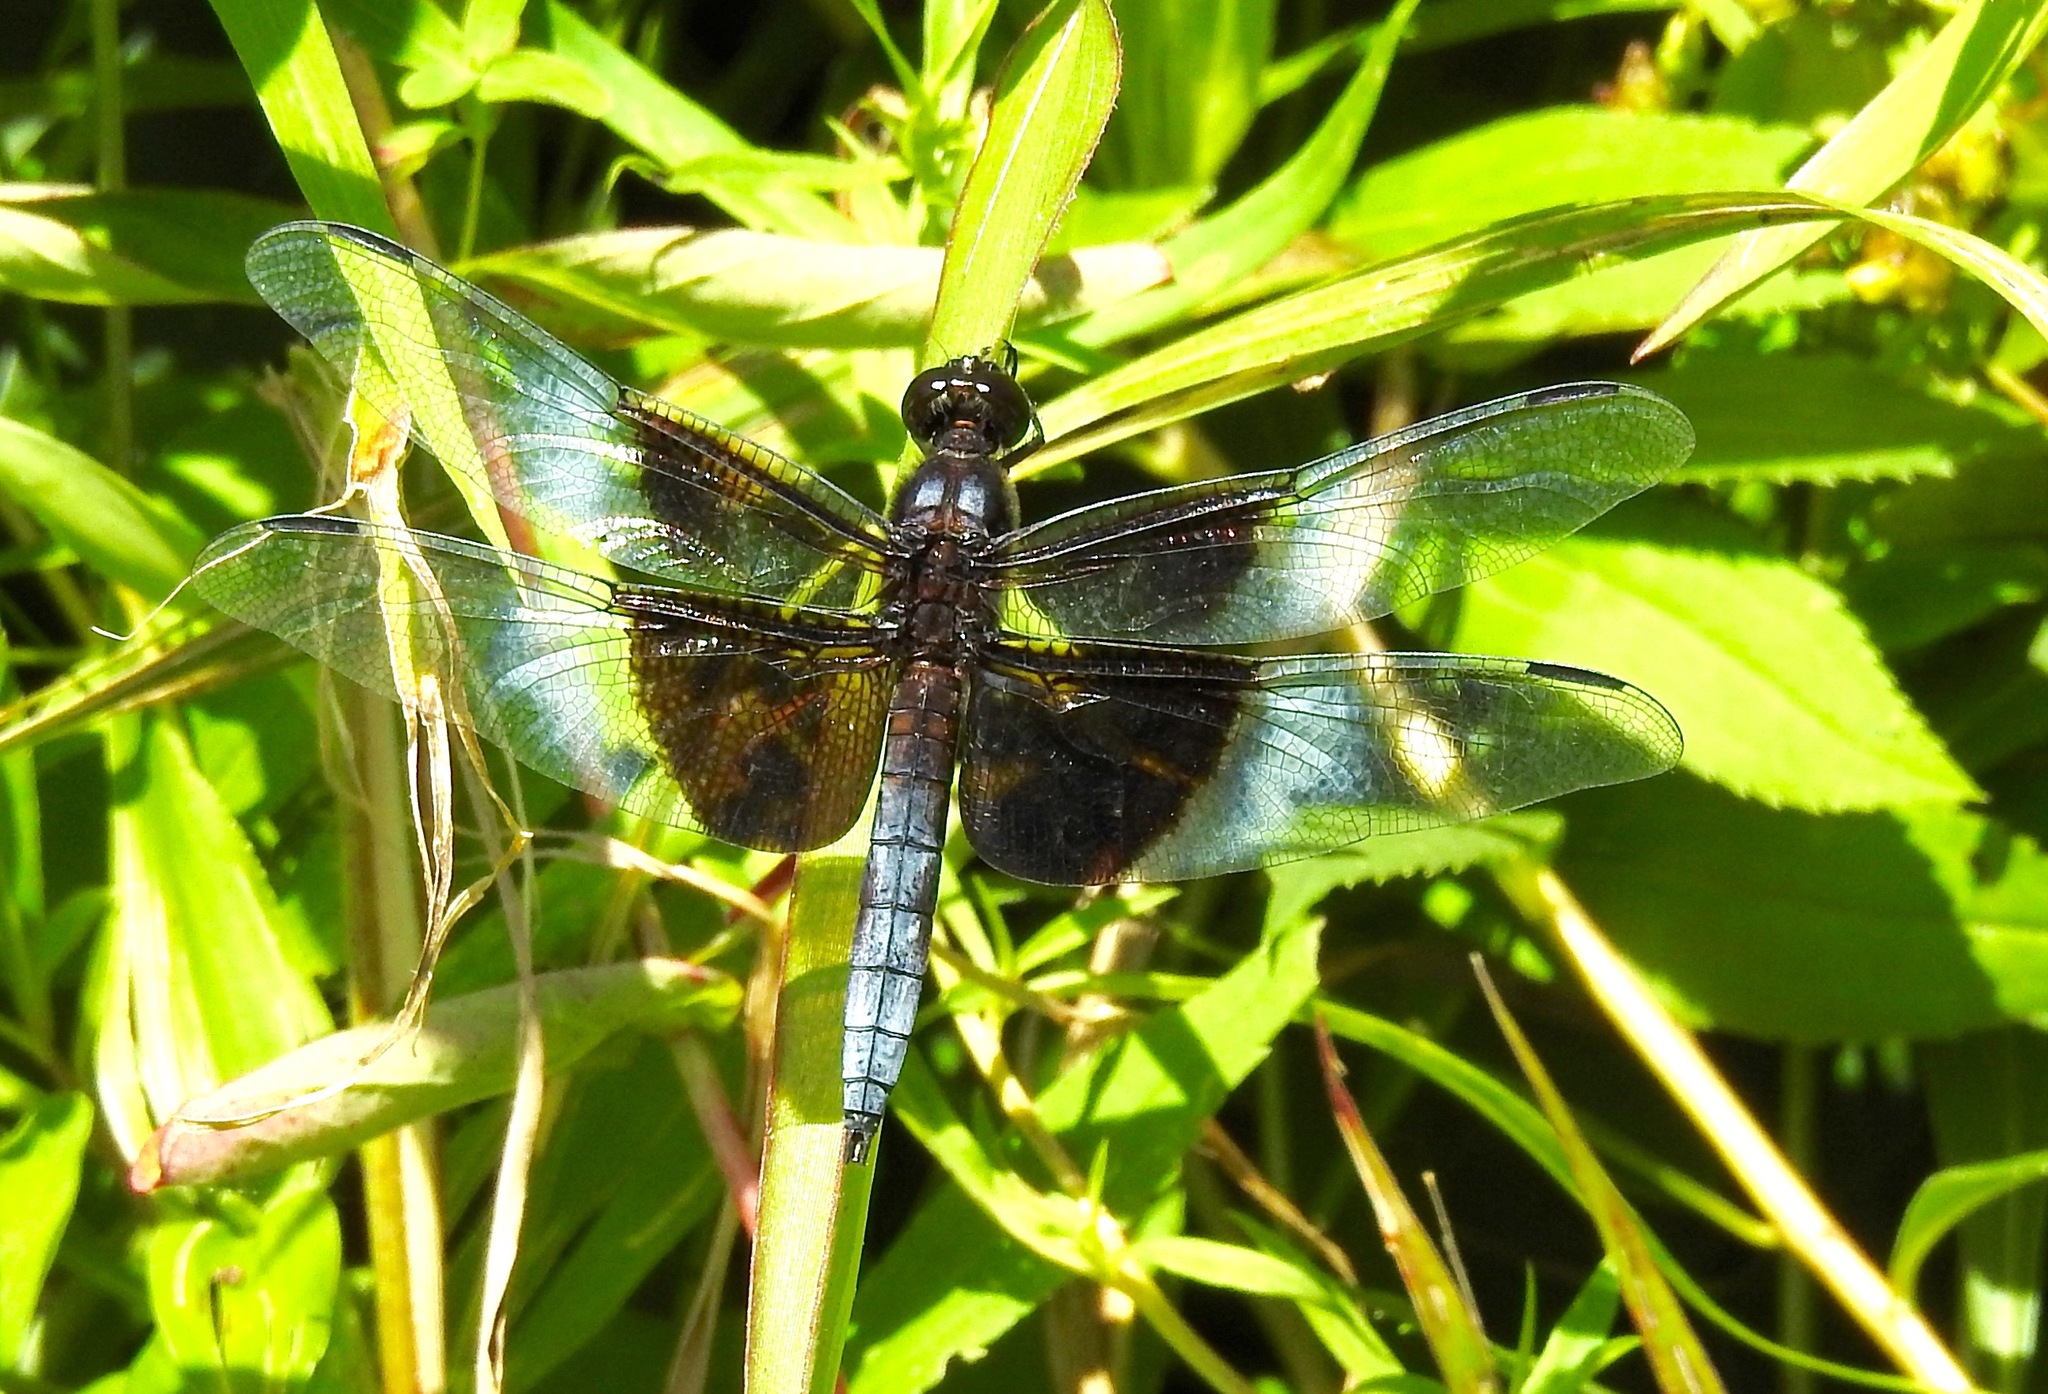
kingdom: Animalia
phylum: Arthropoda
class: Insecta
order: Odonata
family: Libellulidae
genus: Libellula
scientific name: Libellula luctuosa
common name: Widow skimmer
